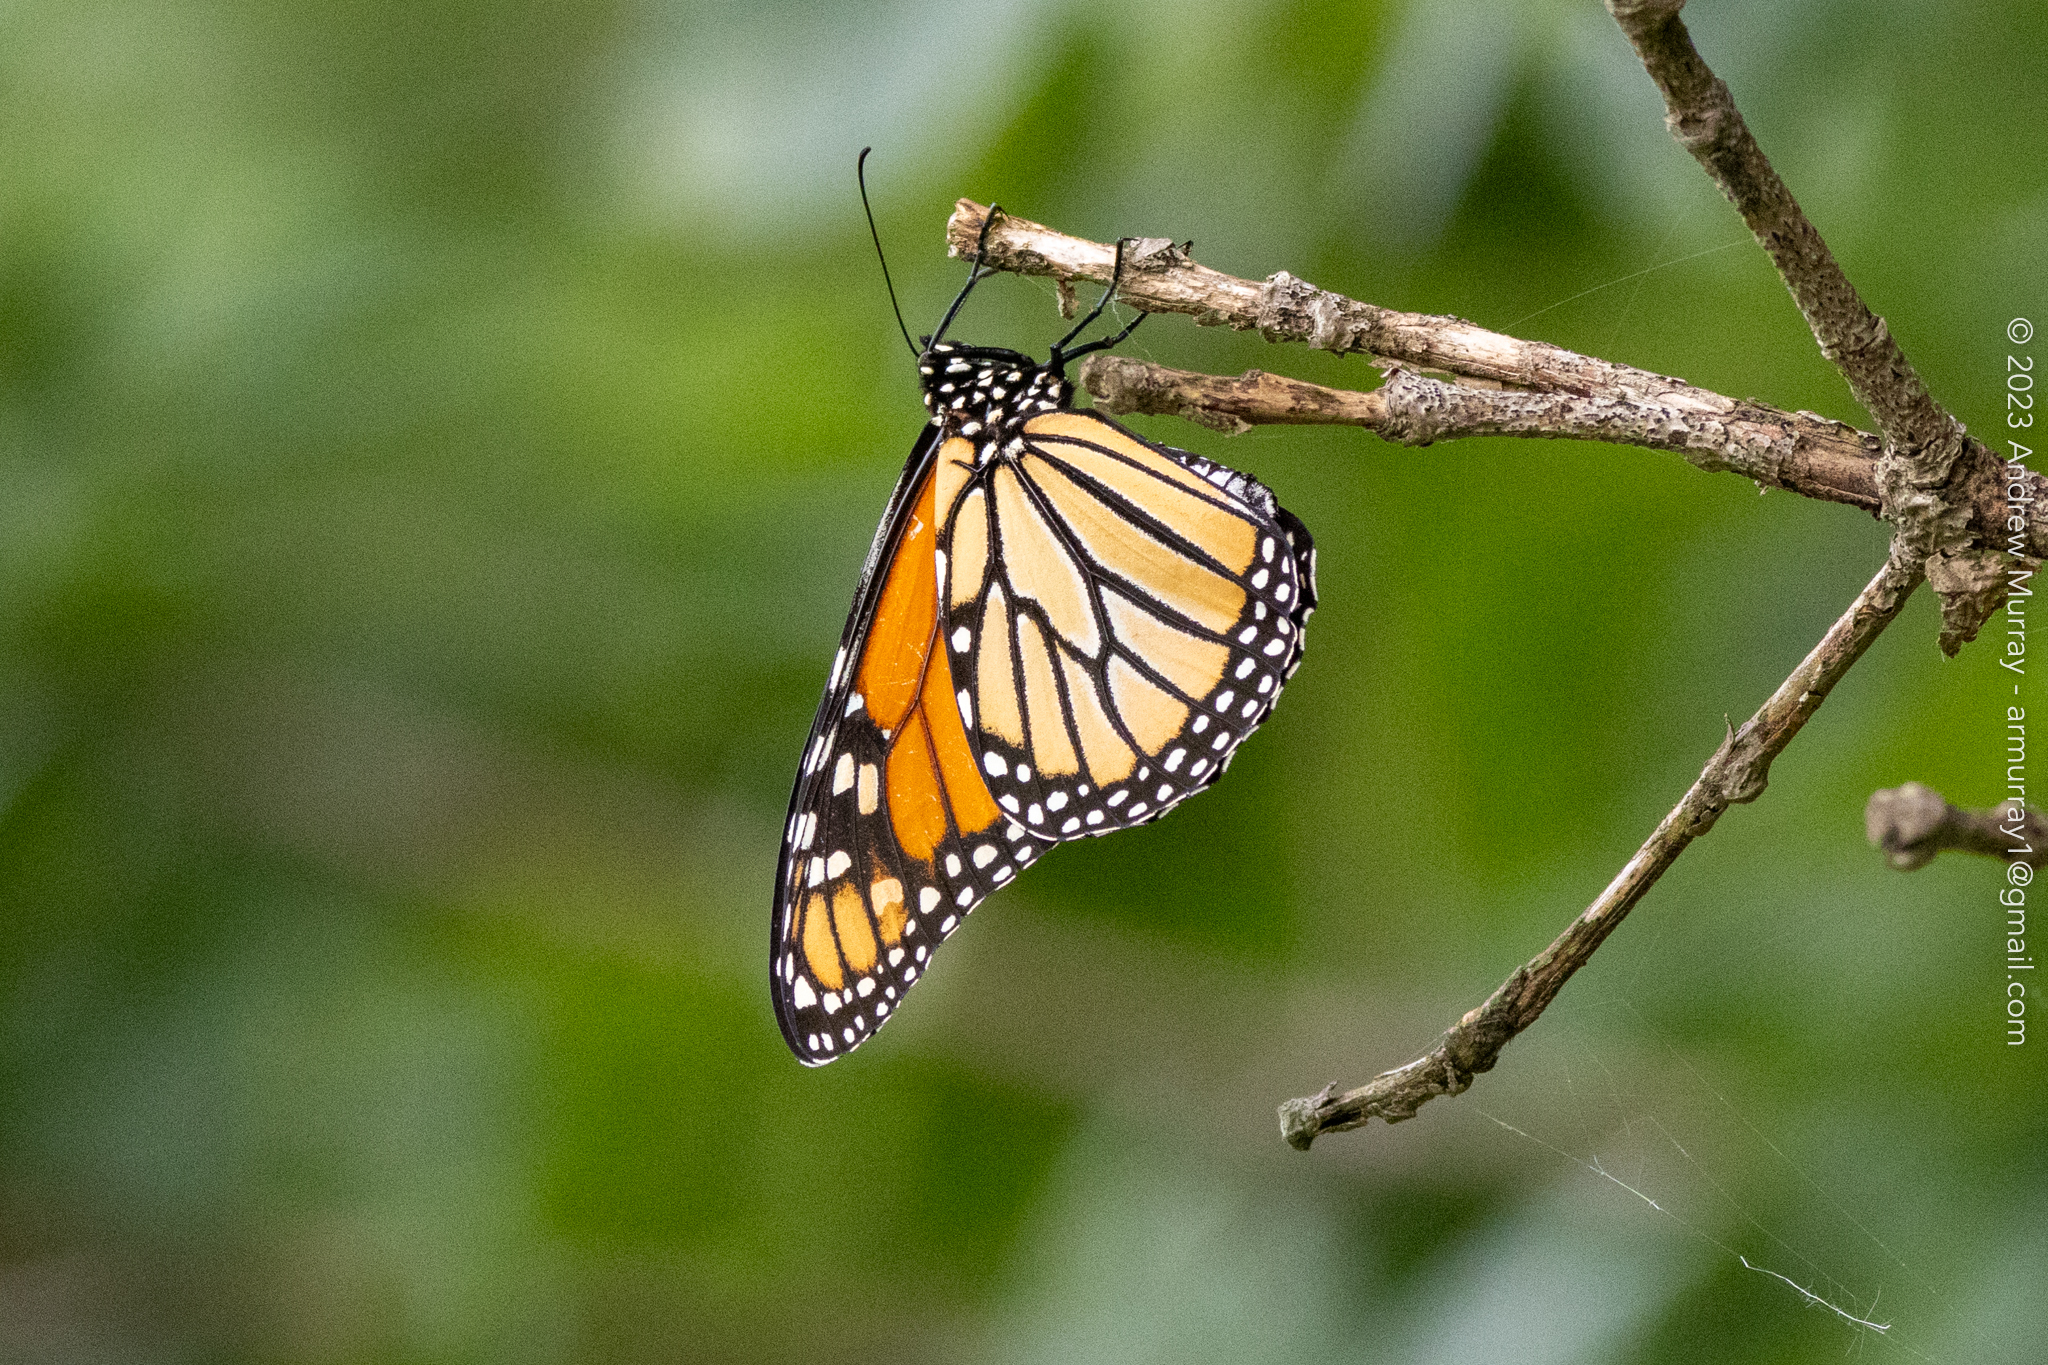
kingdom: Animalia
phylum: Arthropoda
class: Insecta
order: Lepidoptera
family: Nymphalidae
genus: Danaus
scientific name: Danaus plexippus
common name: Monarch
